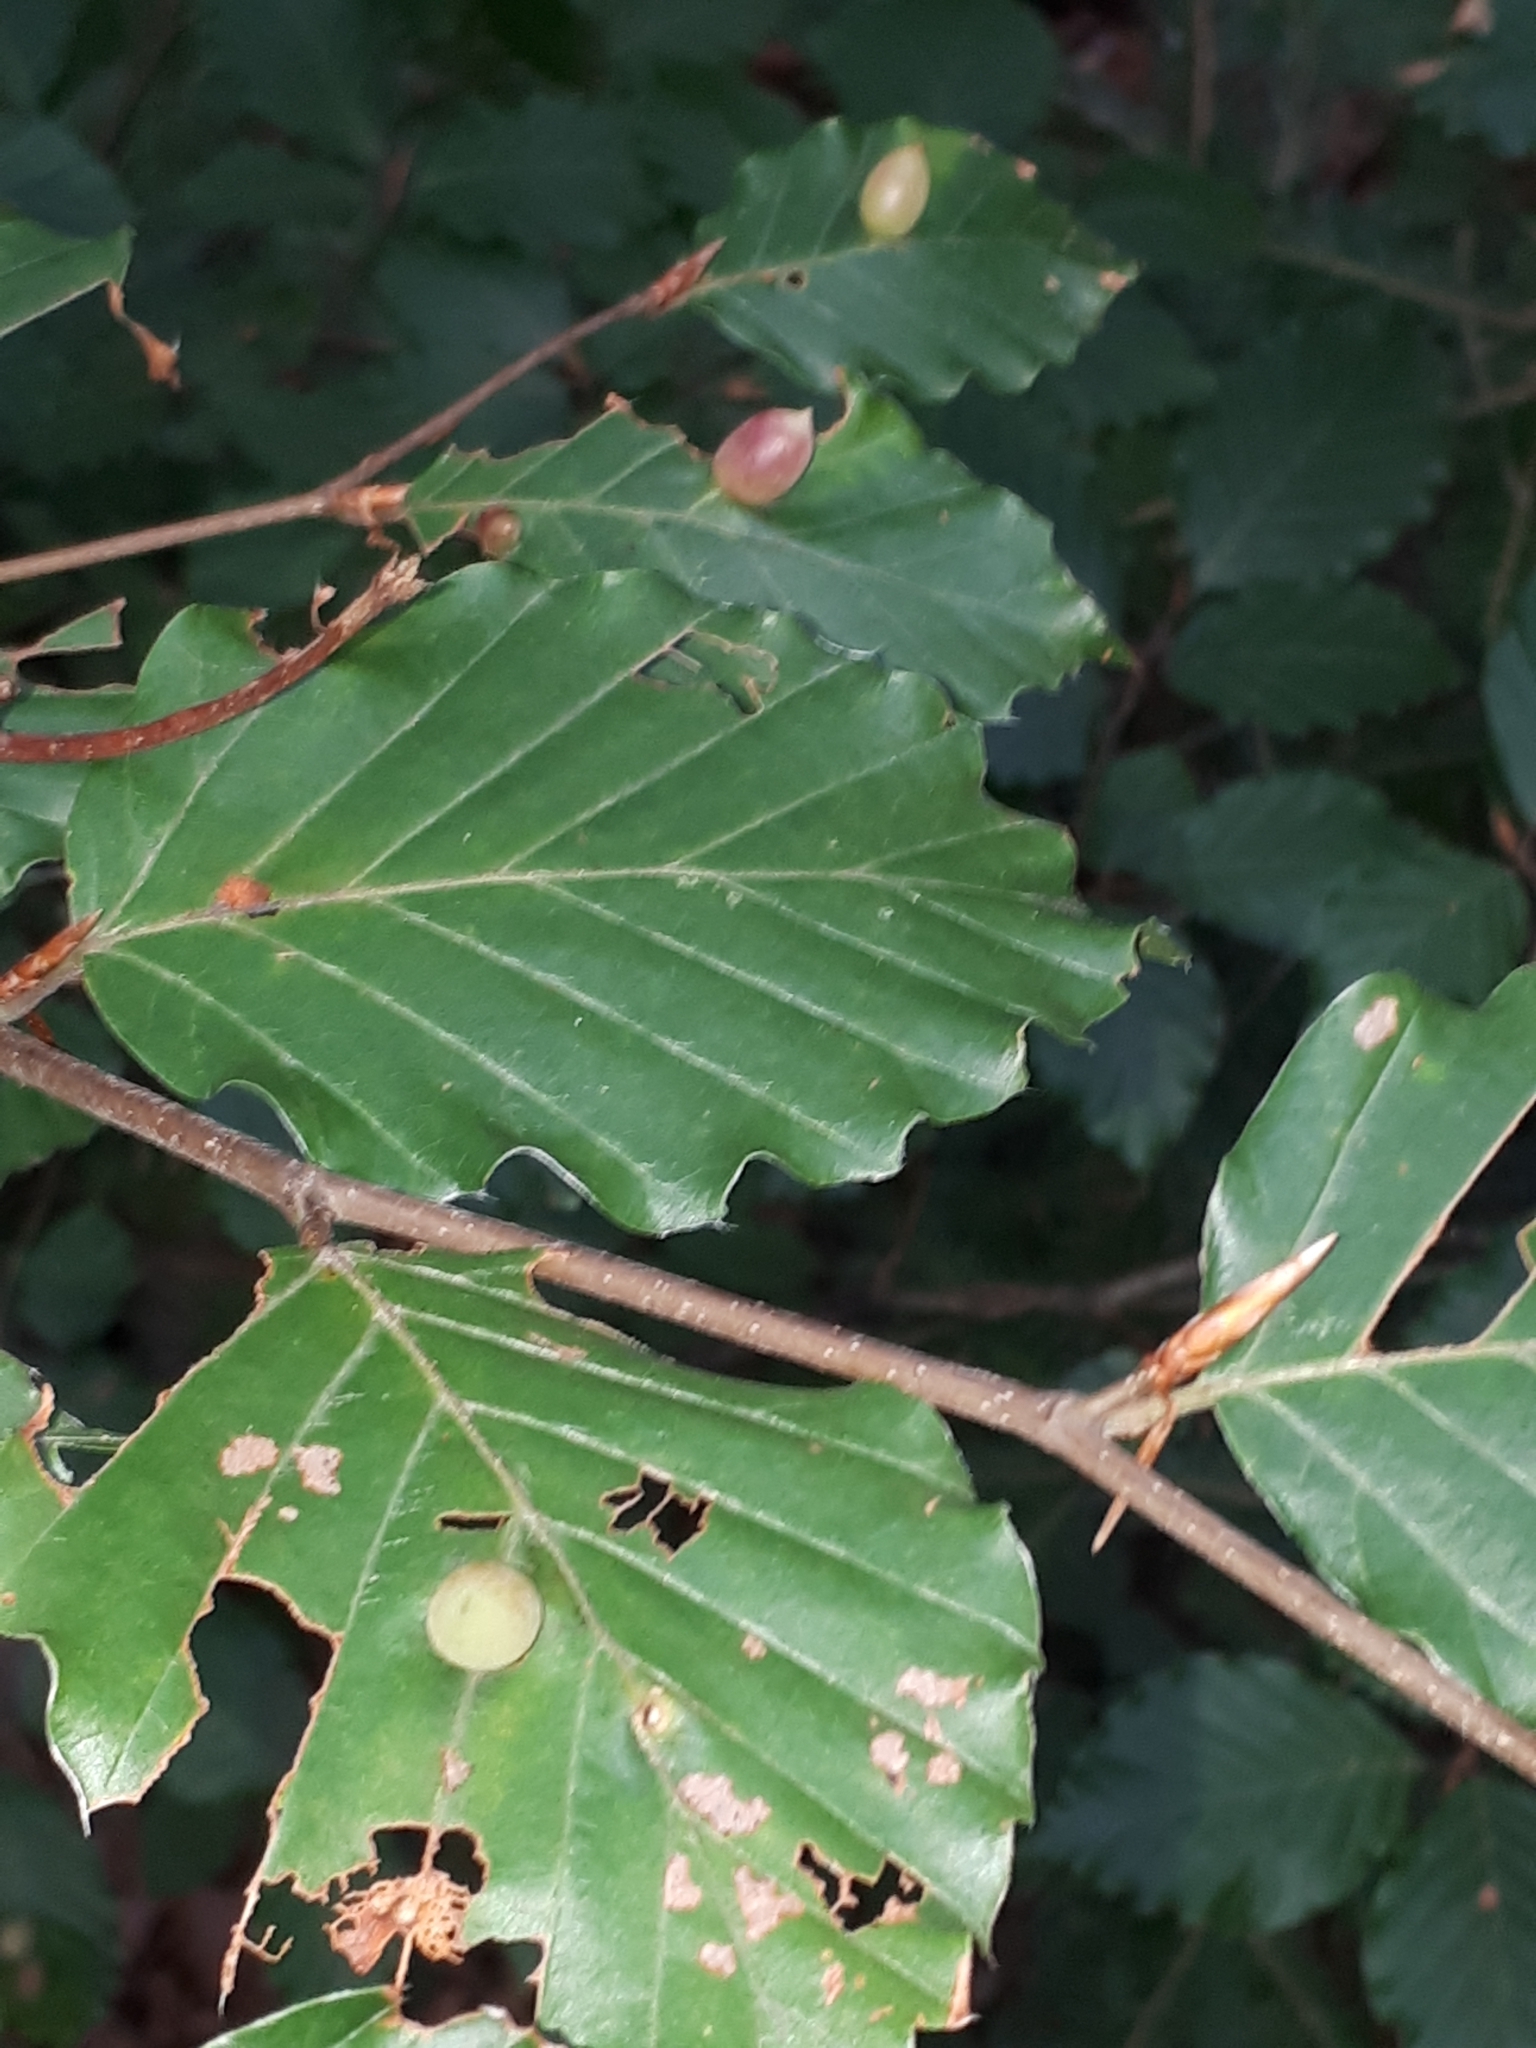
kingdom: Animalia
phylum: Arthropoda
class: Insecta
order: Diptera
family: Cecidomyiidae
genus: Mikiola
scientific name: Mikiola fagi
